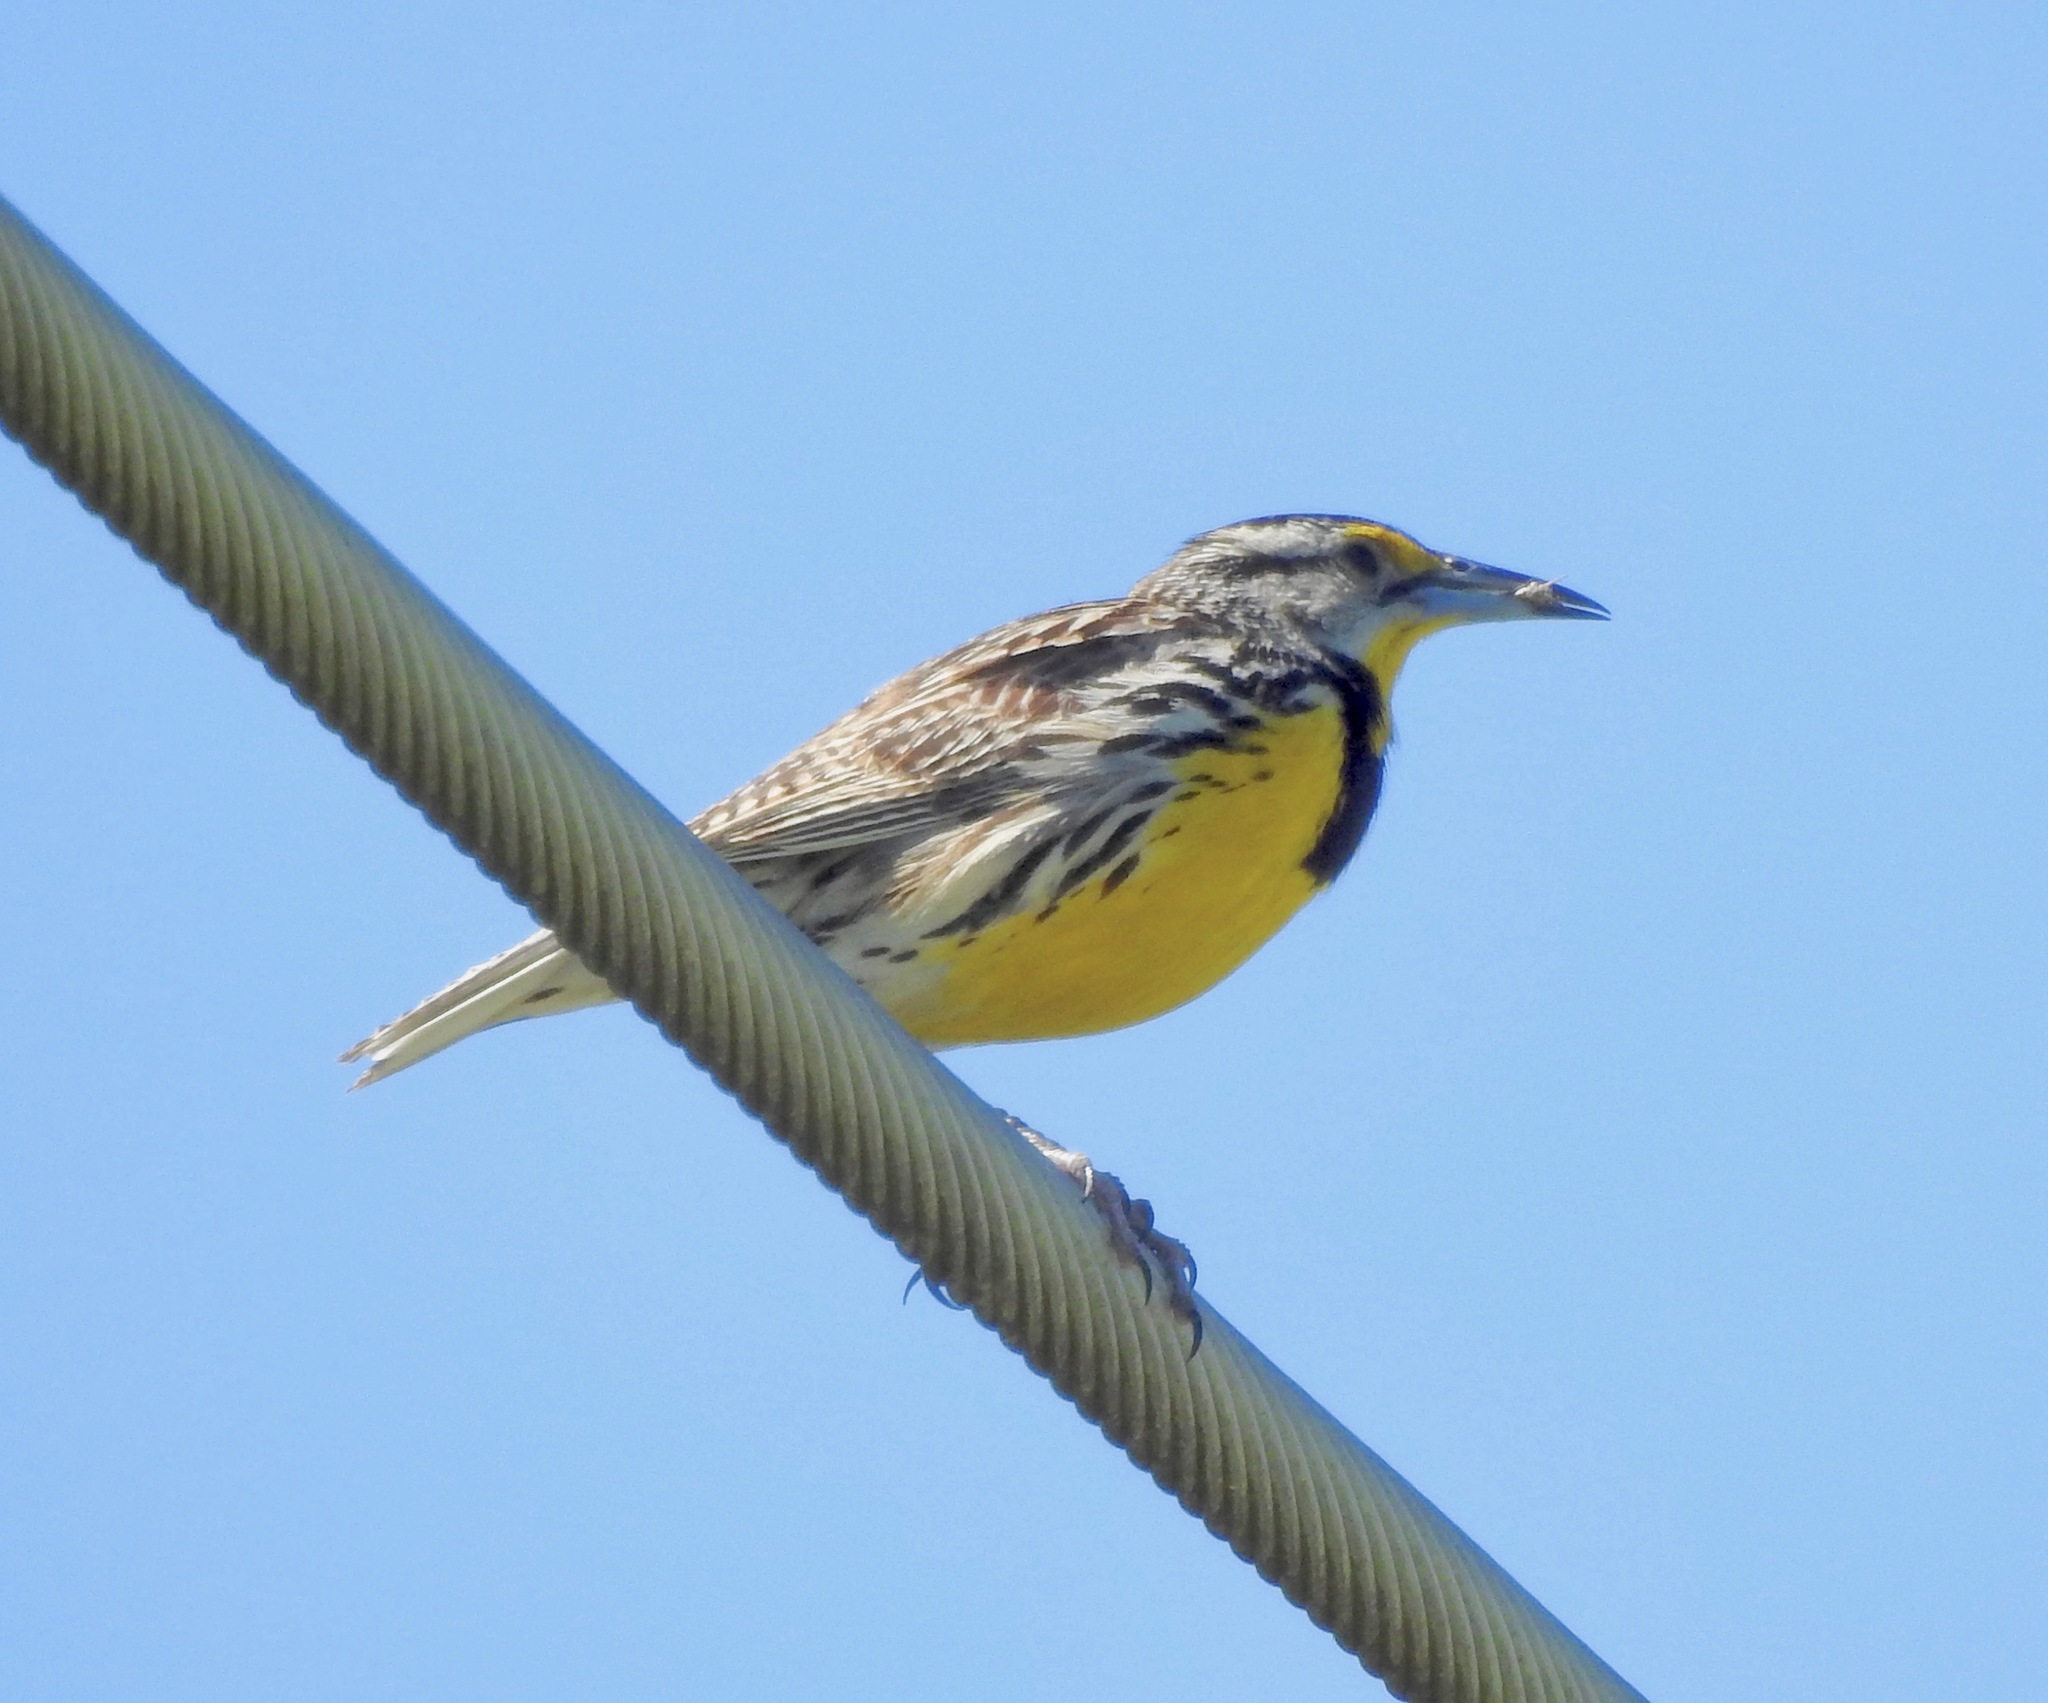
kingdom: Animalia
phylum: Chordata
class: Aves
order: Passeriformes
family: Icteridae
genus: Sturnella
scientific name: Sturnella magna
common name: Eastern meadowlark
